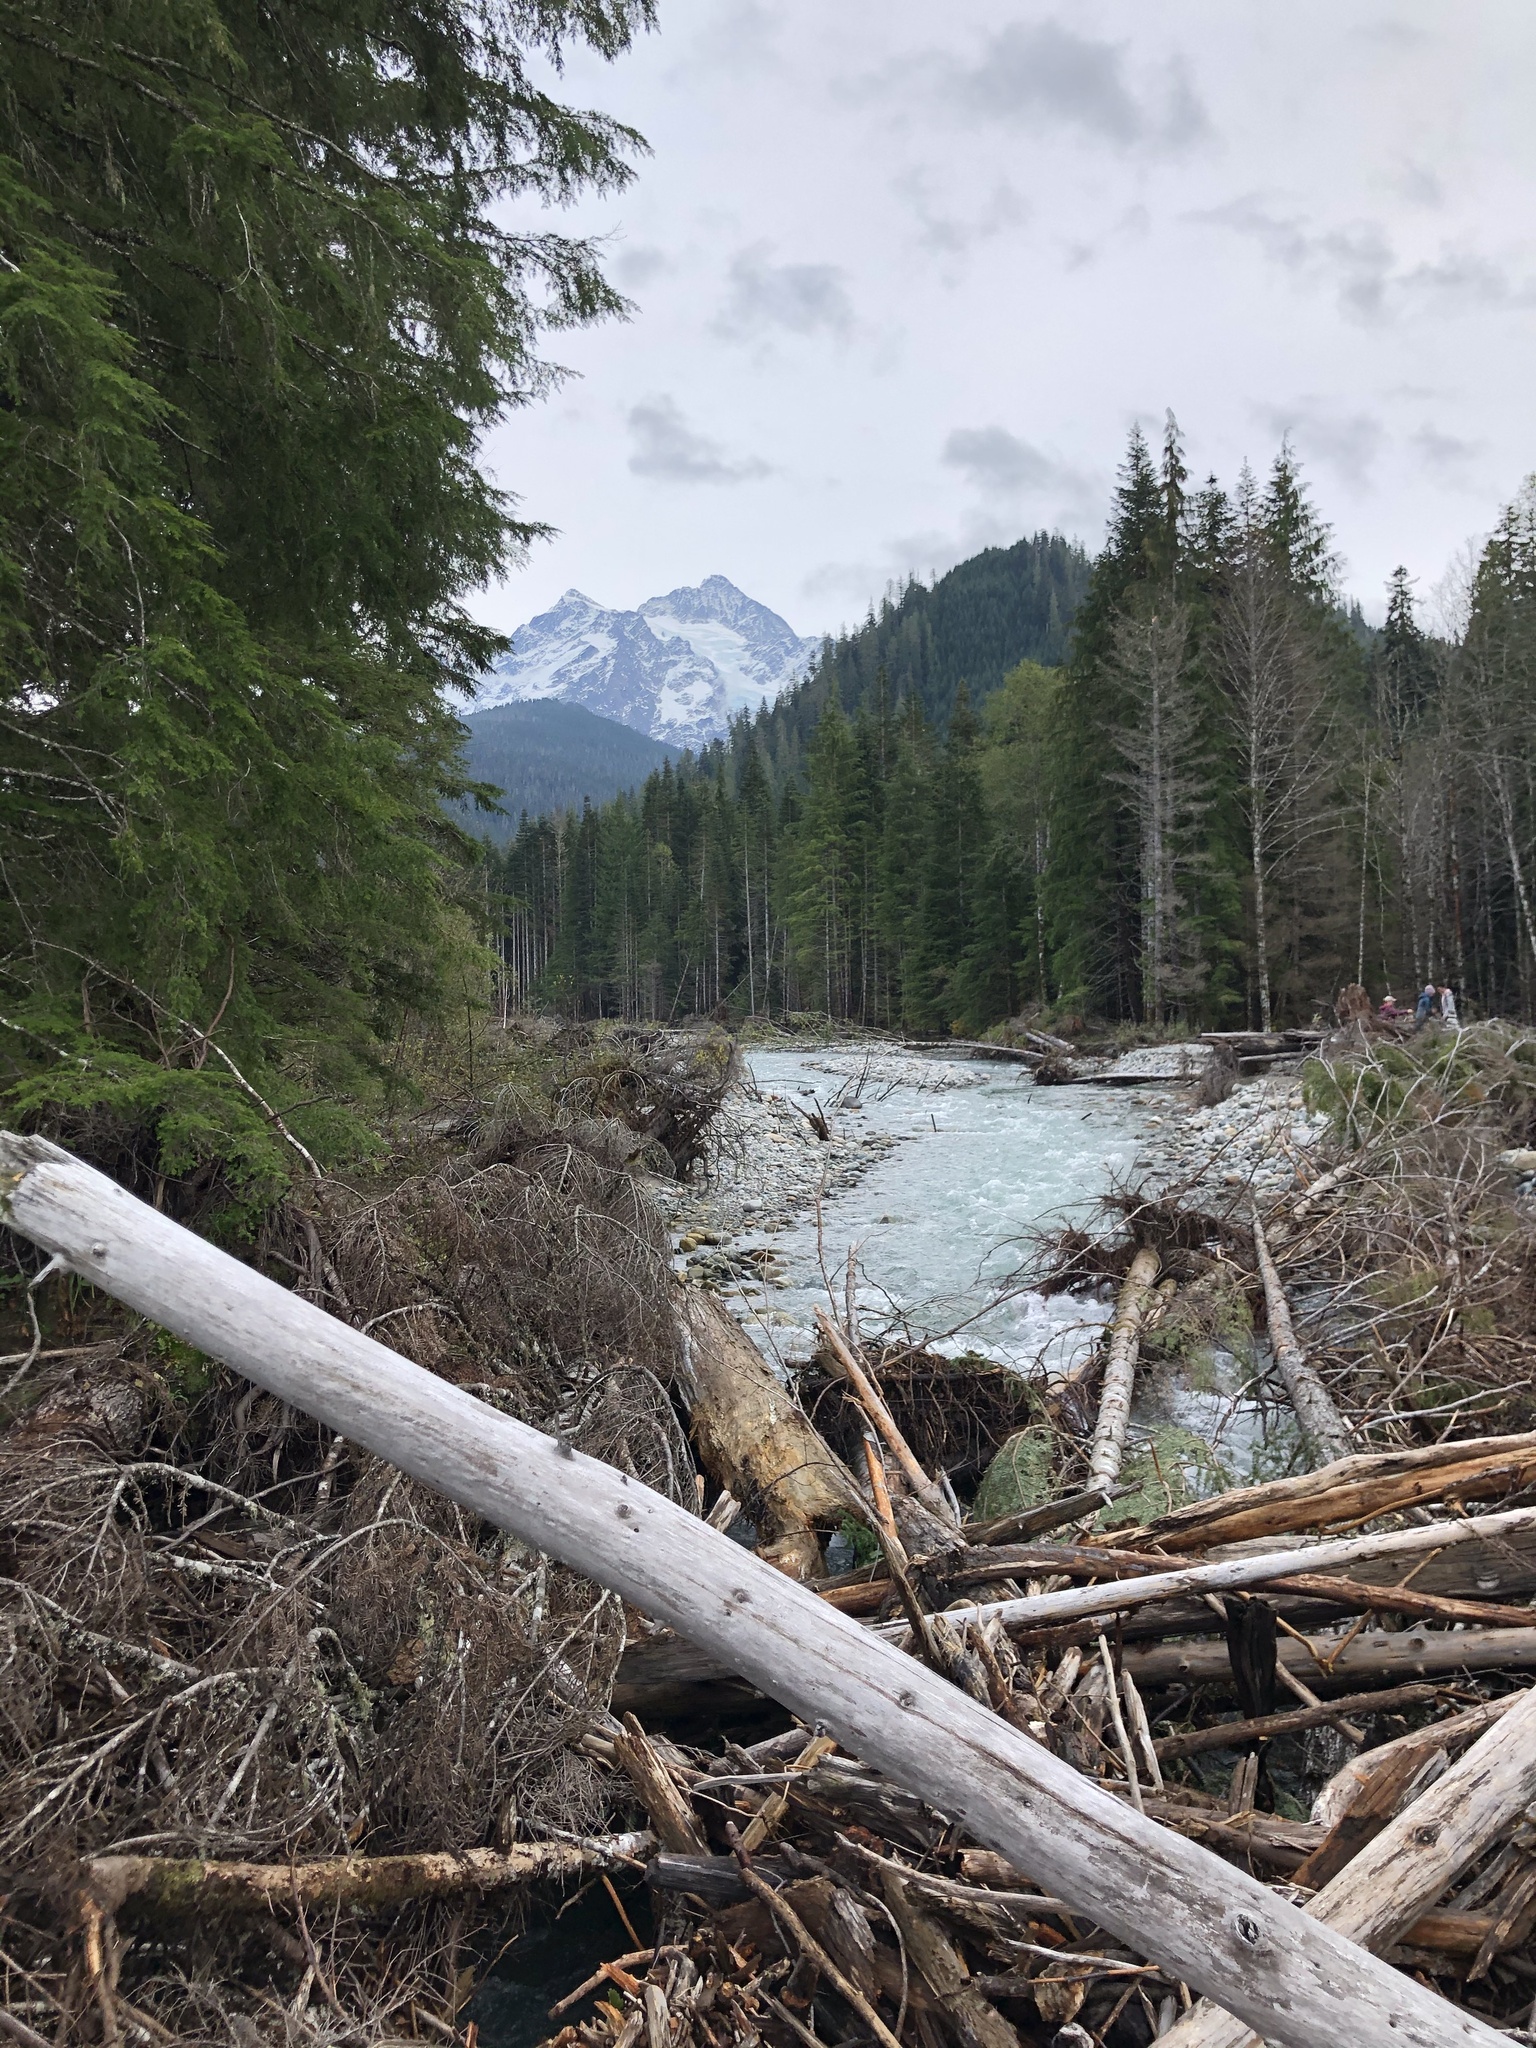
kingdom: Plantae
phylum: Tracheophyta
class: Pinopsida
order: Pinales
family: Pinaceae
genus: Tsuga
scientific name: Tsuga heterophylla
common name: Western hemlock
